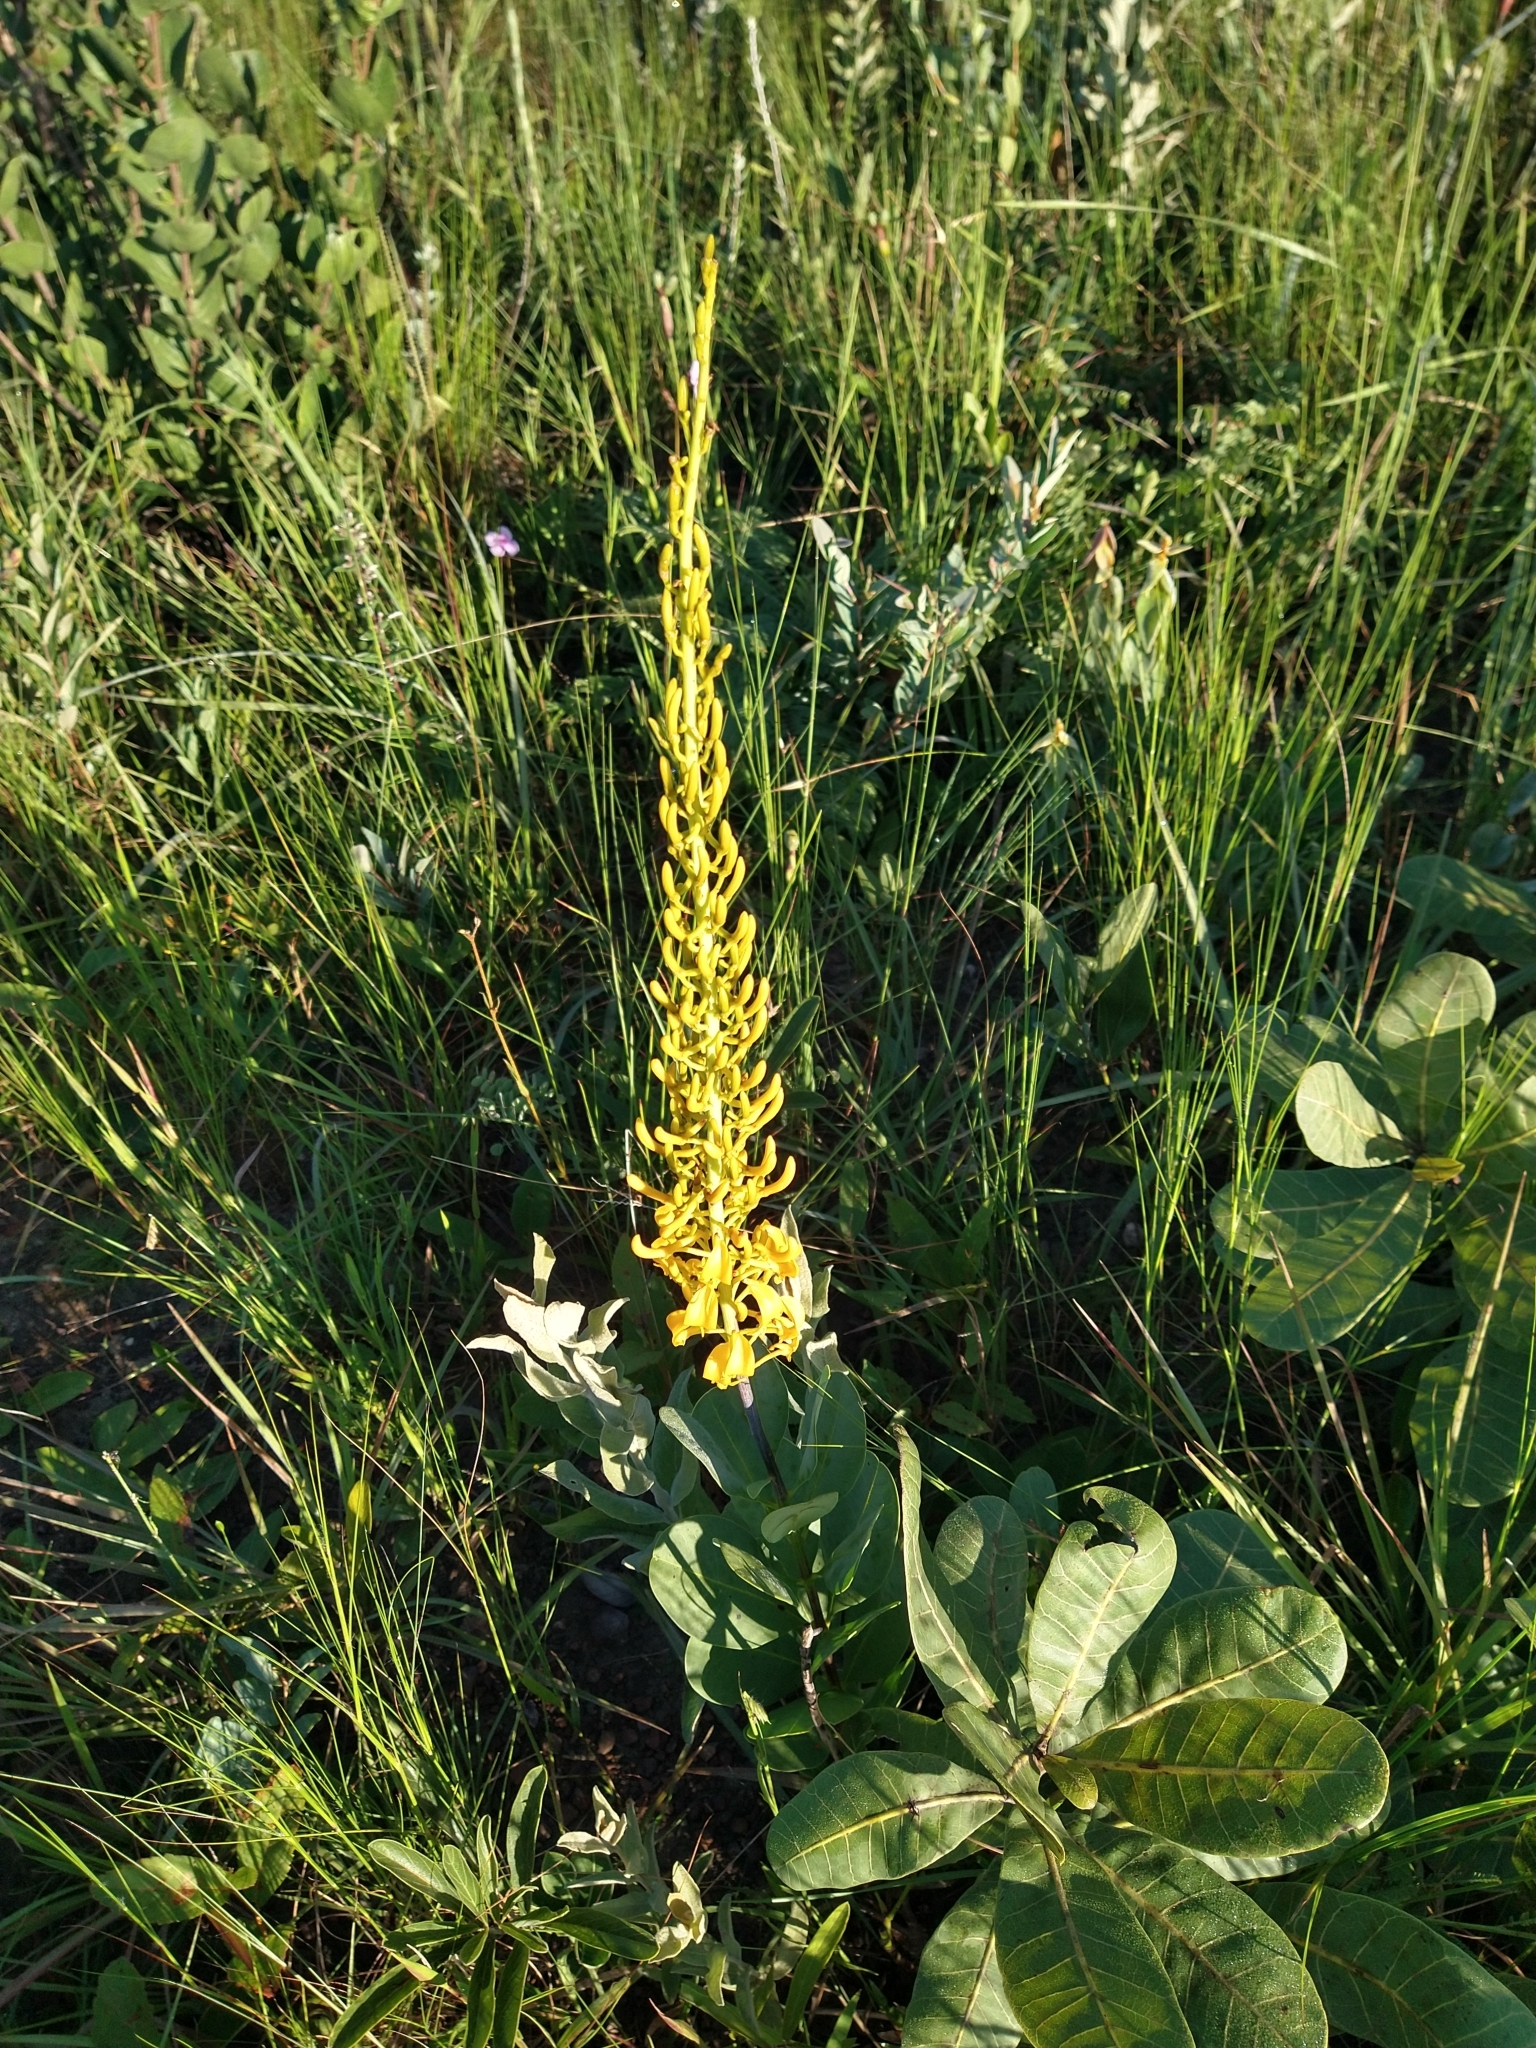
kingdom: Plantae
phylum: Tracheophyta
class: Magnoliopsida
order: Myrtales
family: Vochysiaceae
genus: Vochysia
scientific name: Vochysia pumila
